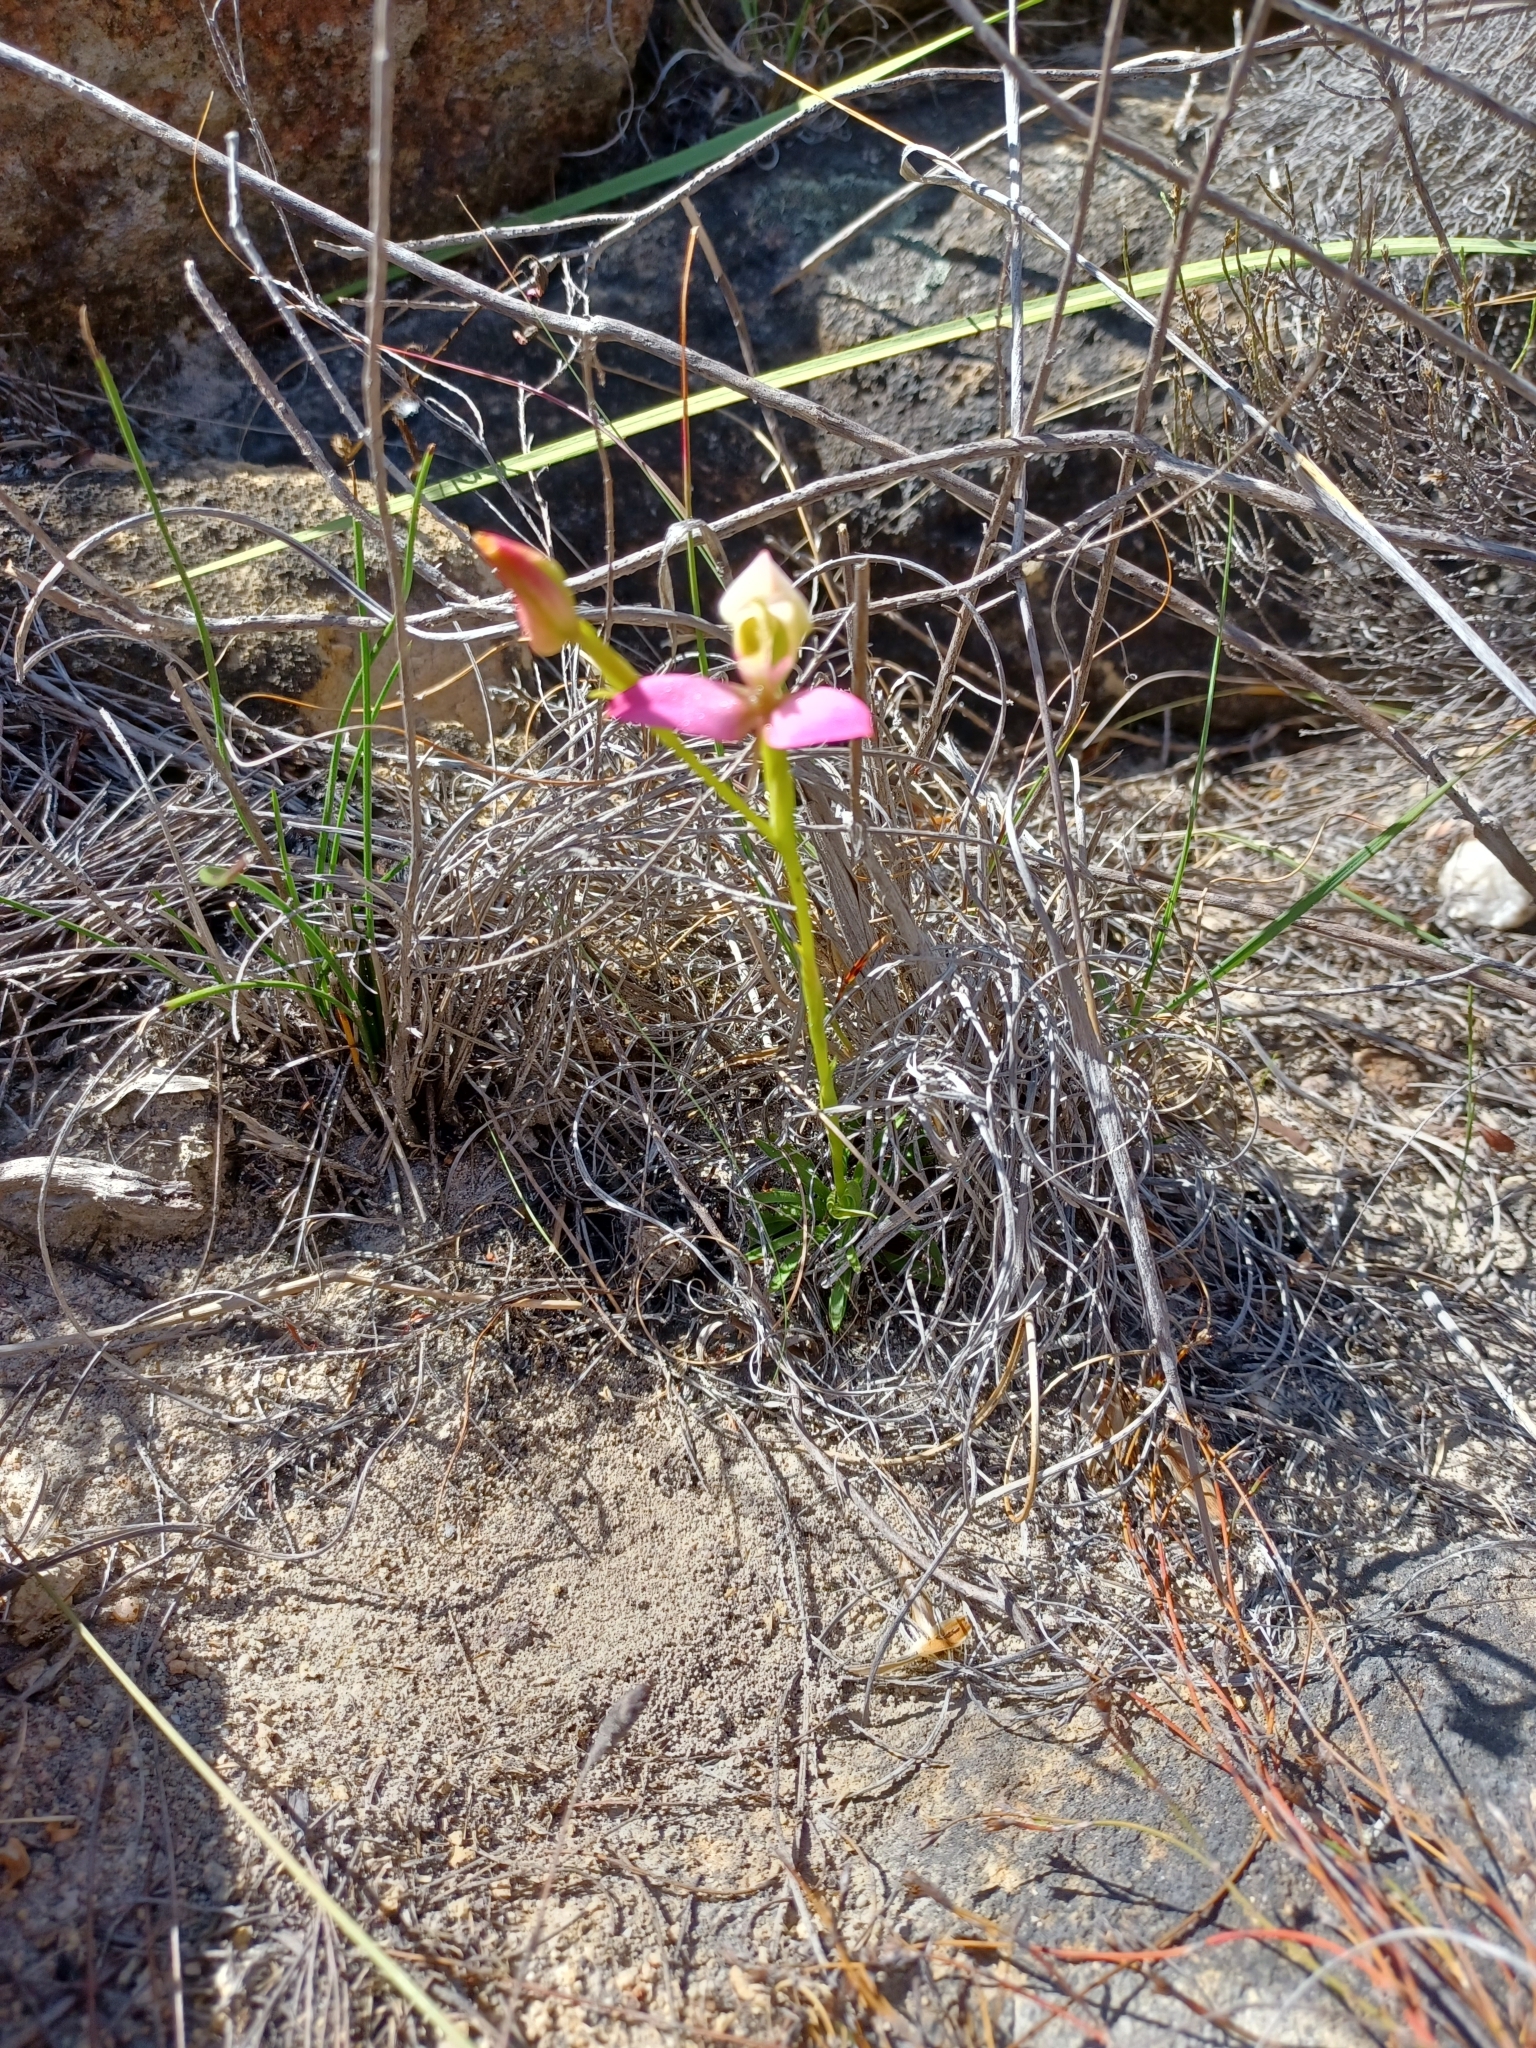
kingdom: Plantae
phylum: Tracheophyta
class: Liliopsida
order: Asparagales
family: Orchidaceae
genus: Disa
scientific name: Disa filicornis
